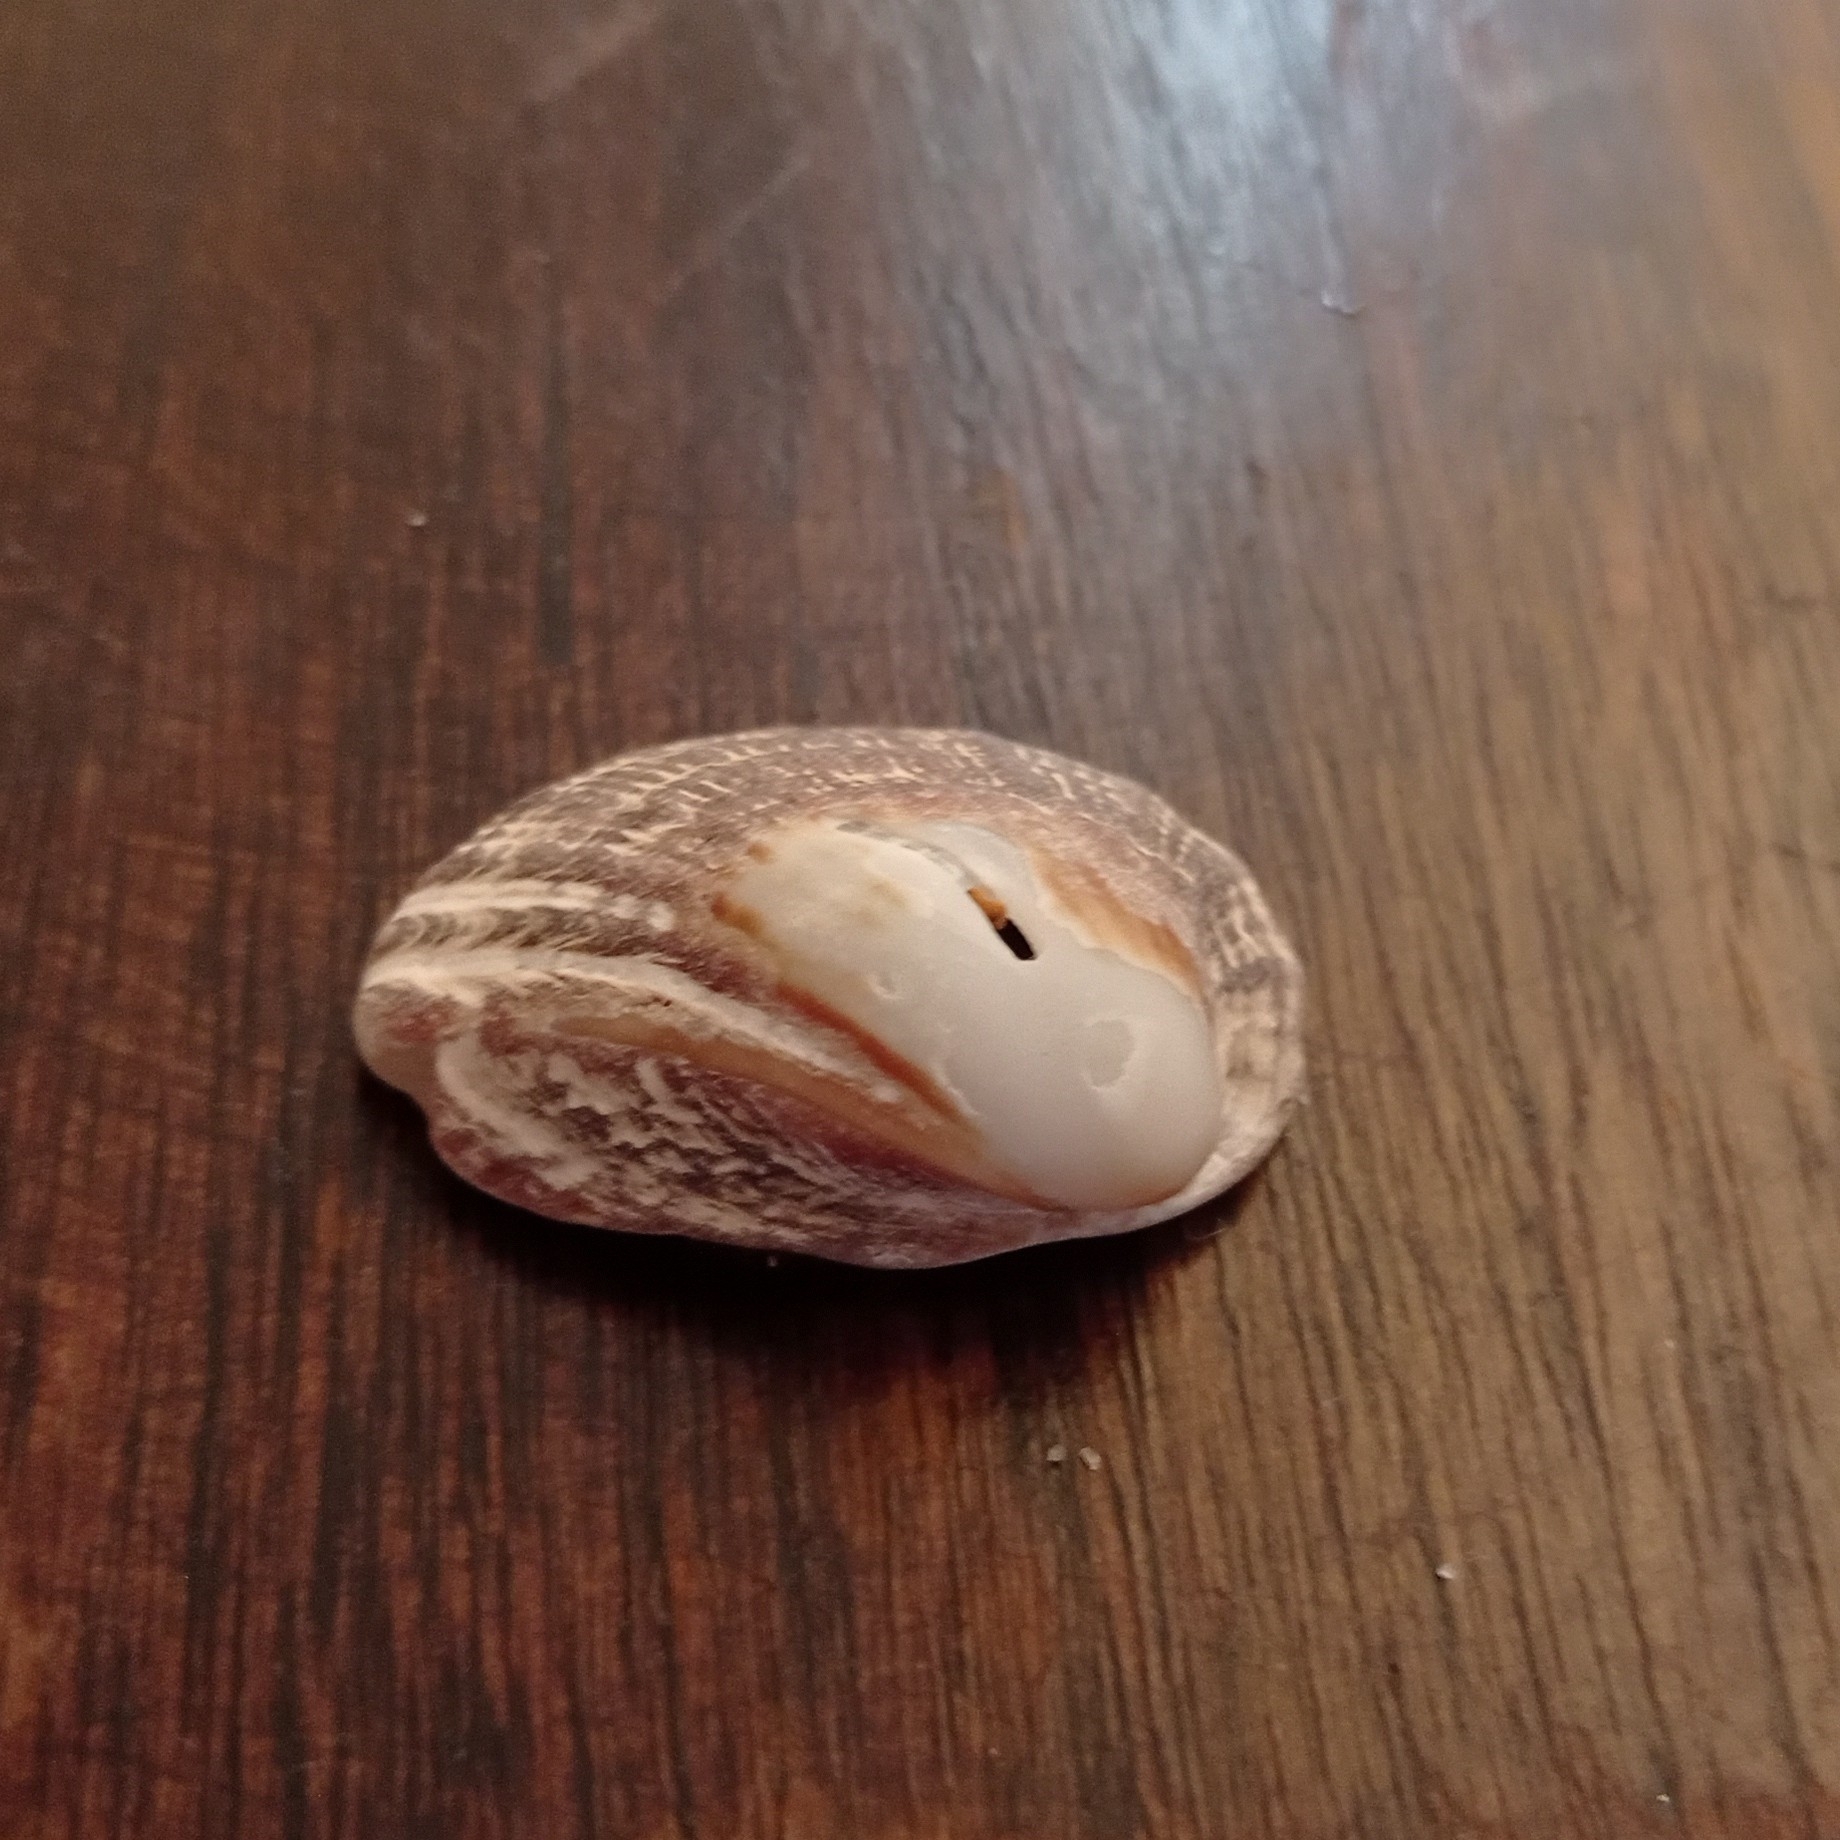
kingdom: Animalia
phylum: Mollusca
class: Gastropoda
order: Neogastropoda
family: Muricidae
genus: Concholepas
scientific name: Concholepas concholepas
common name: Chilean abalone
